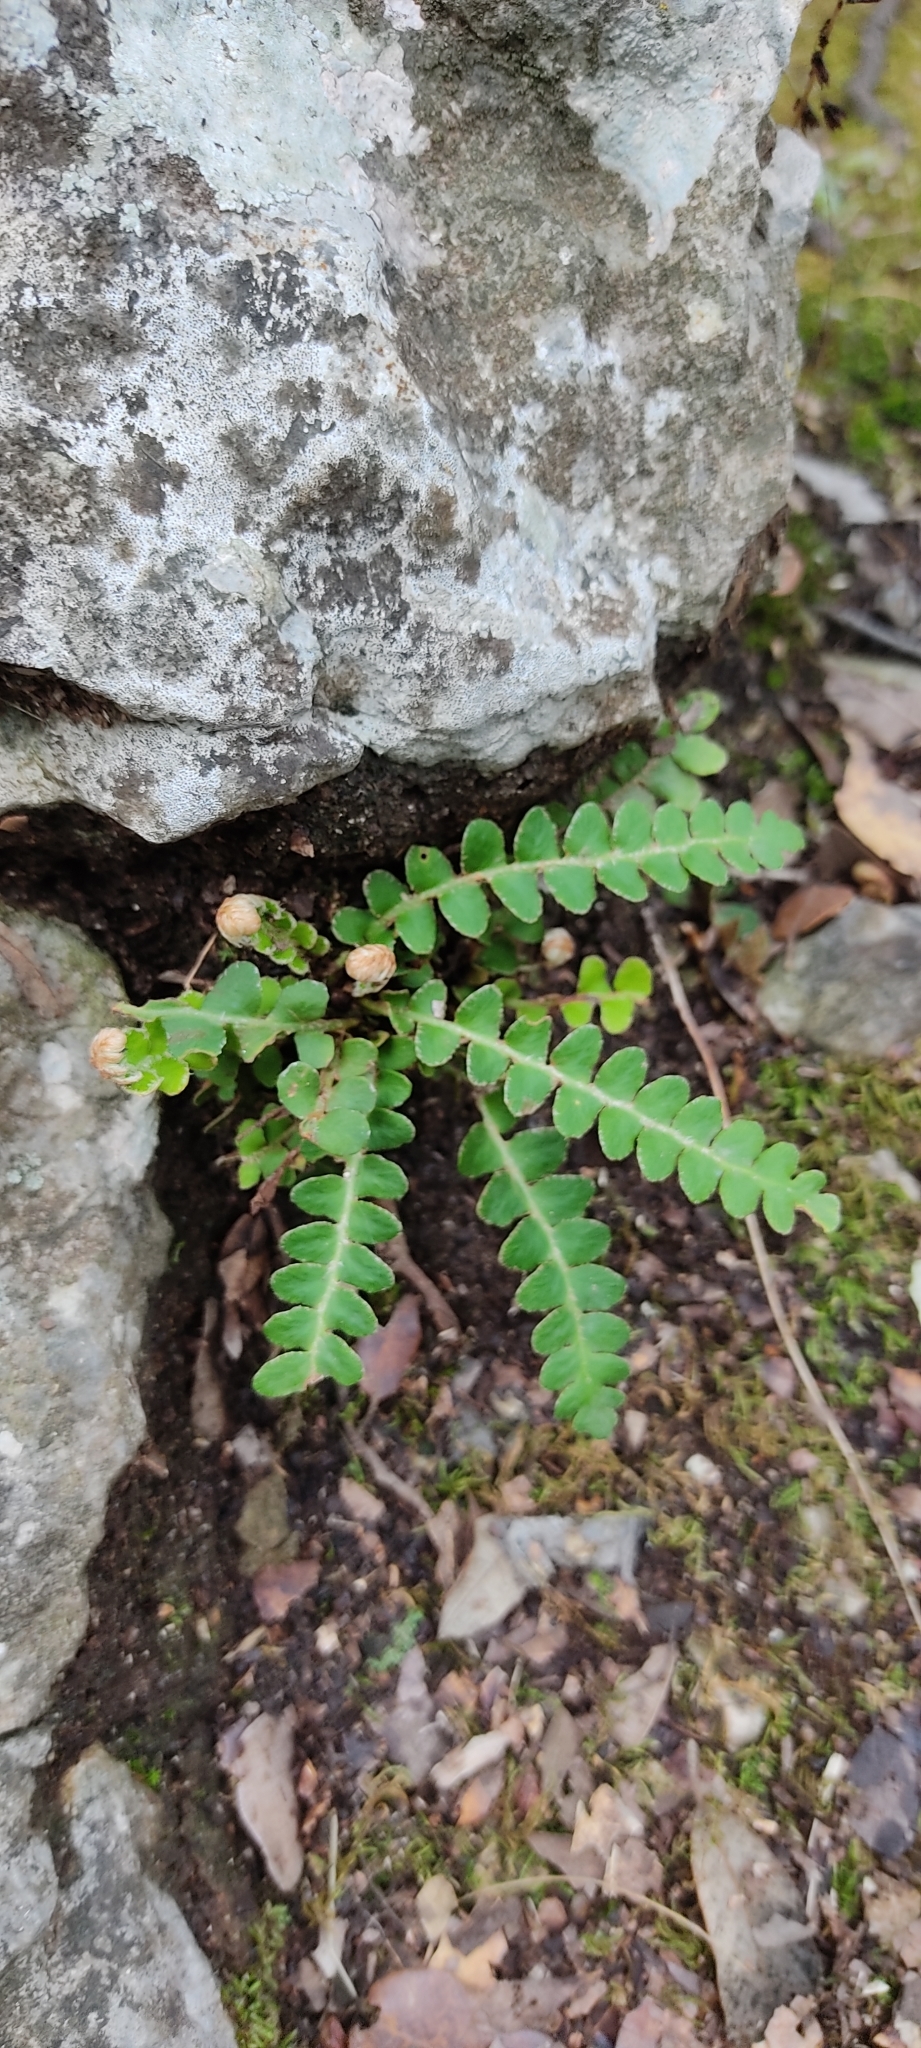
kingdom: Plantae
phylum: Tracheophyta
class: Polypodiopsida
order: Polypodiales
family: Aspleniaceae
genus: Asplenium
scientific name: Asplenium ceterach
